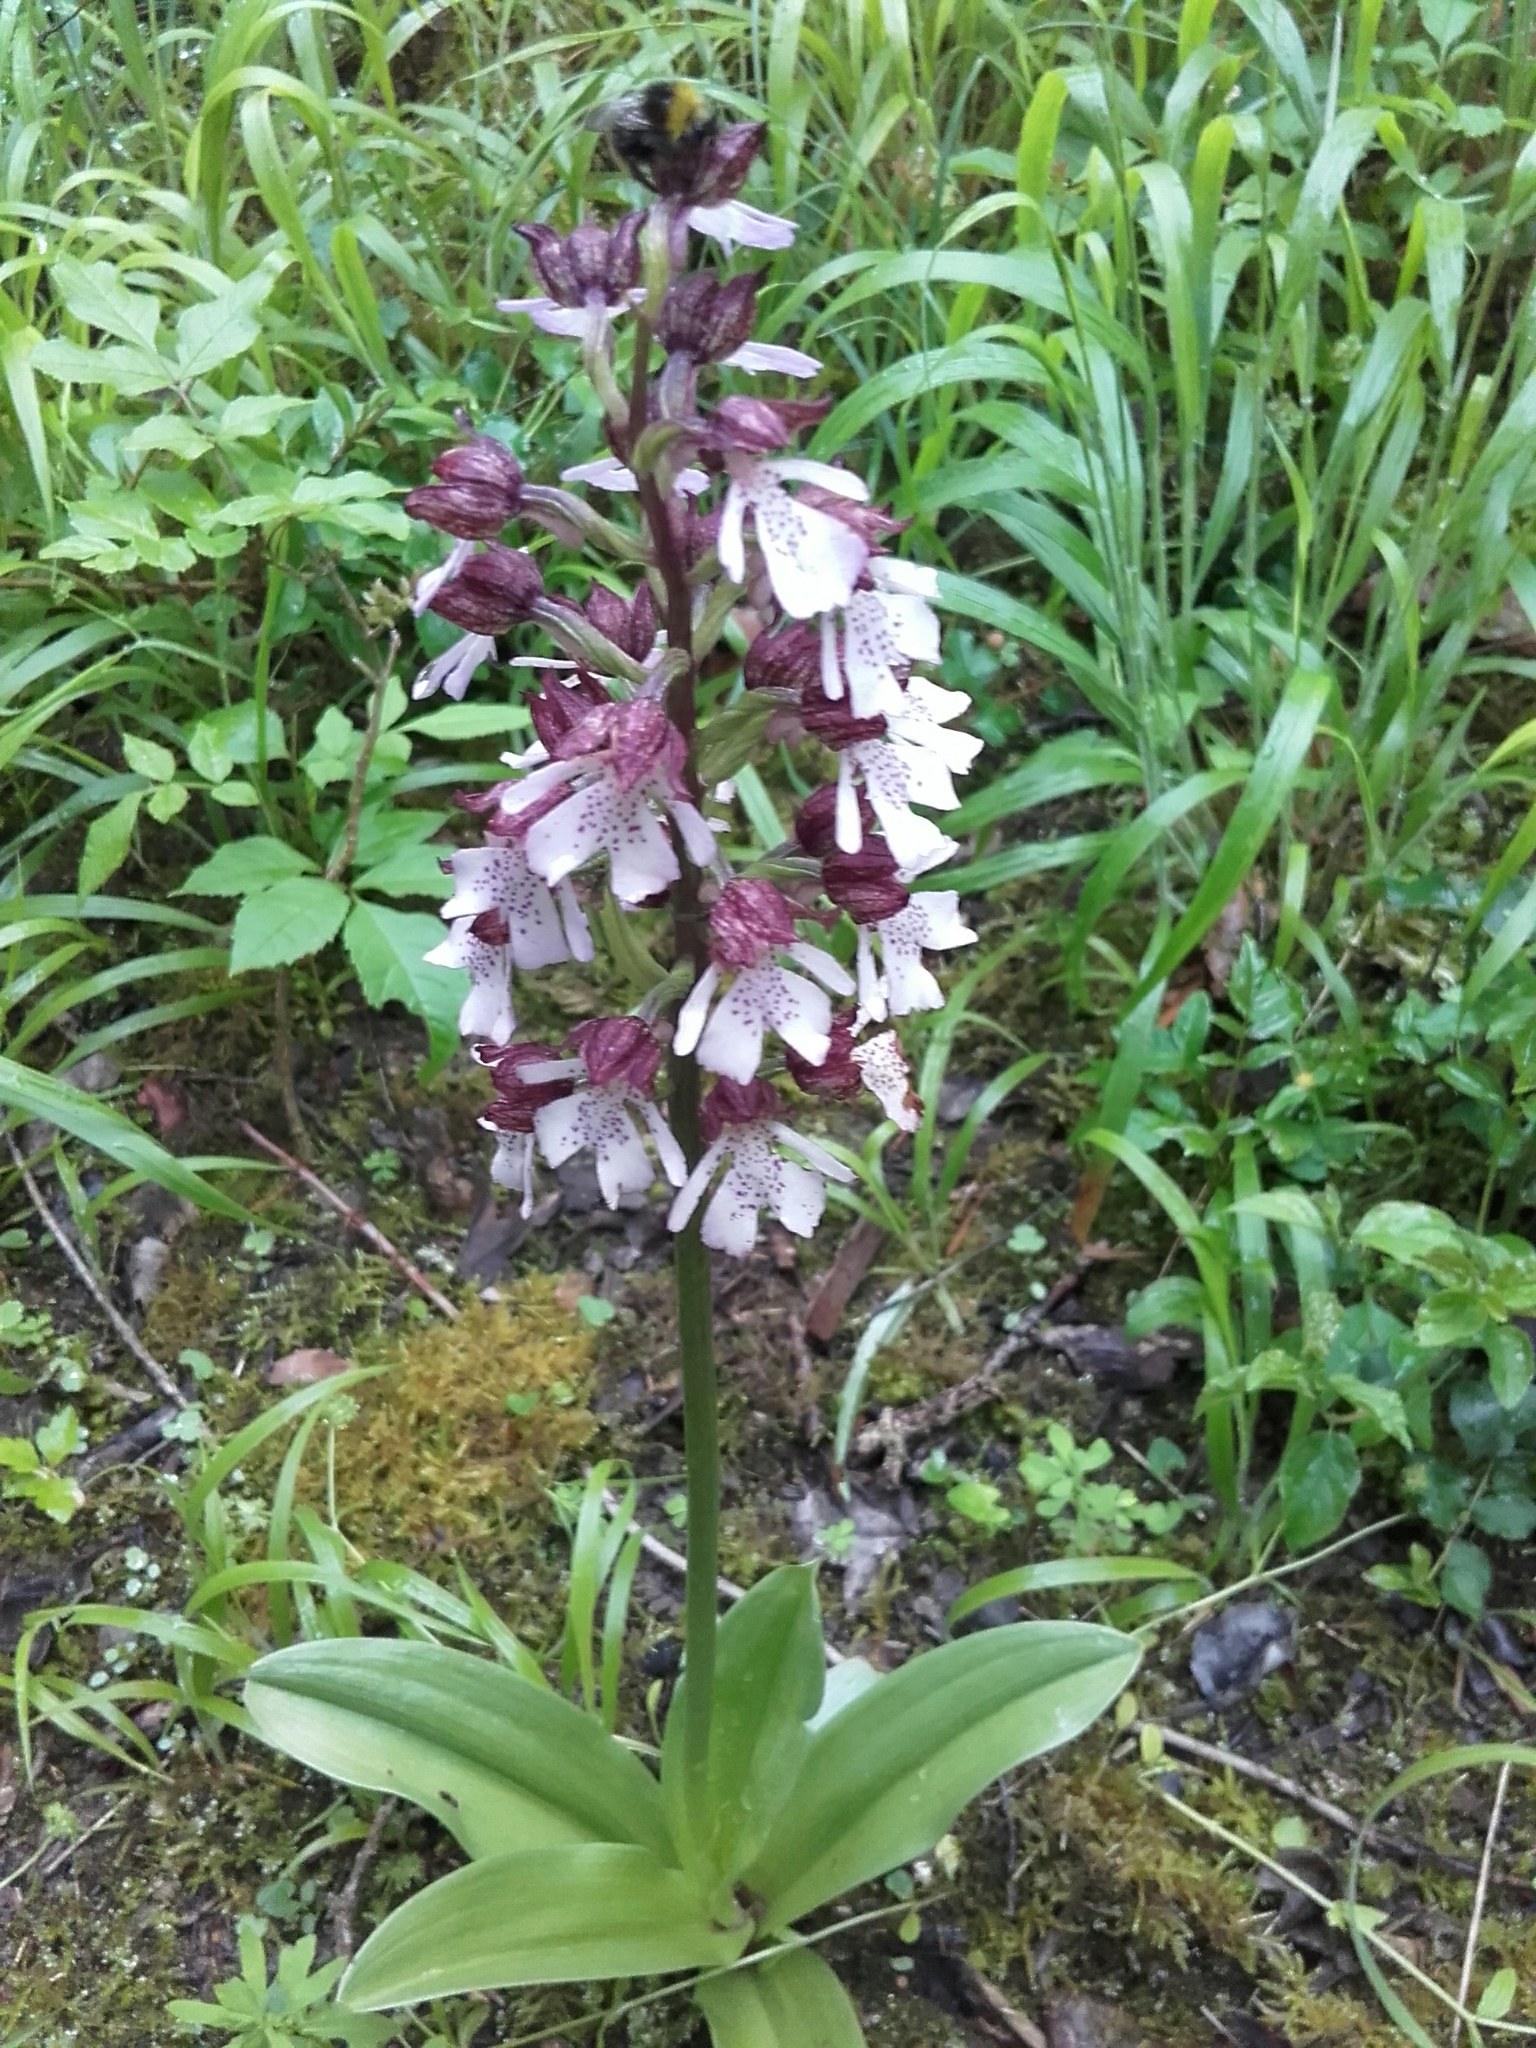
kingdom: Plantae
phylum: Tracheophyta
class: Liliopsida
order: Asparagales
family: Orchidaceae
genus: Orchis
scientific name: Orchis purpurea
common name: Lady orchid
